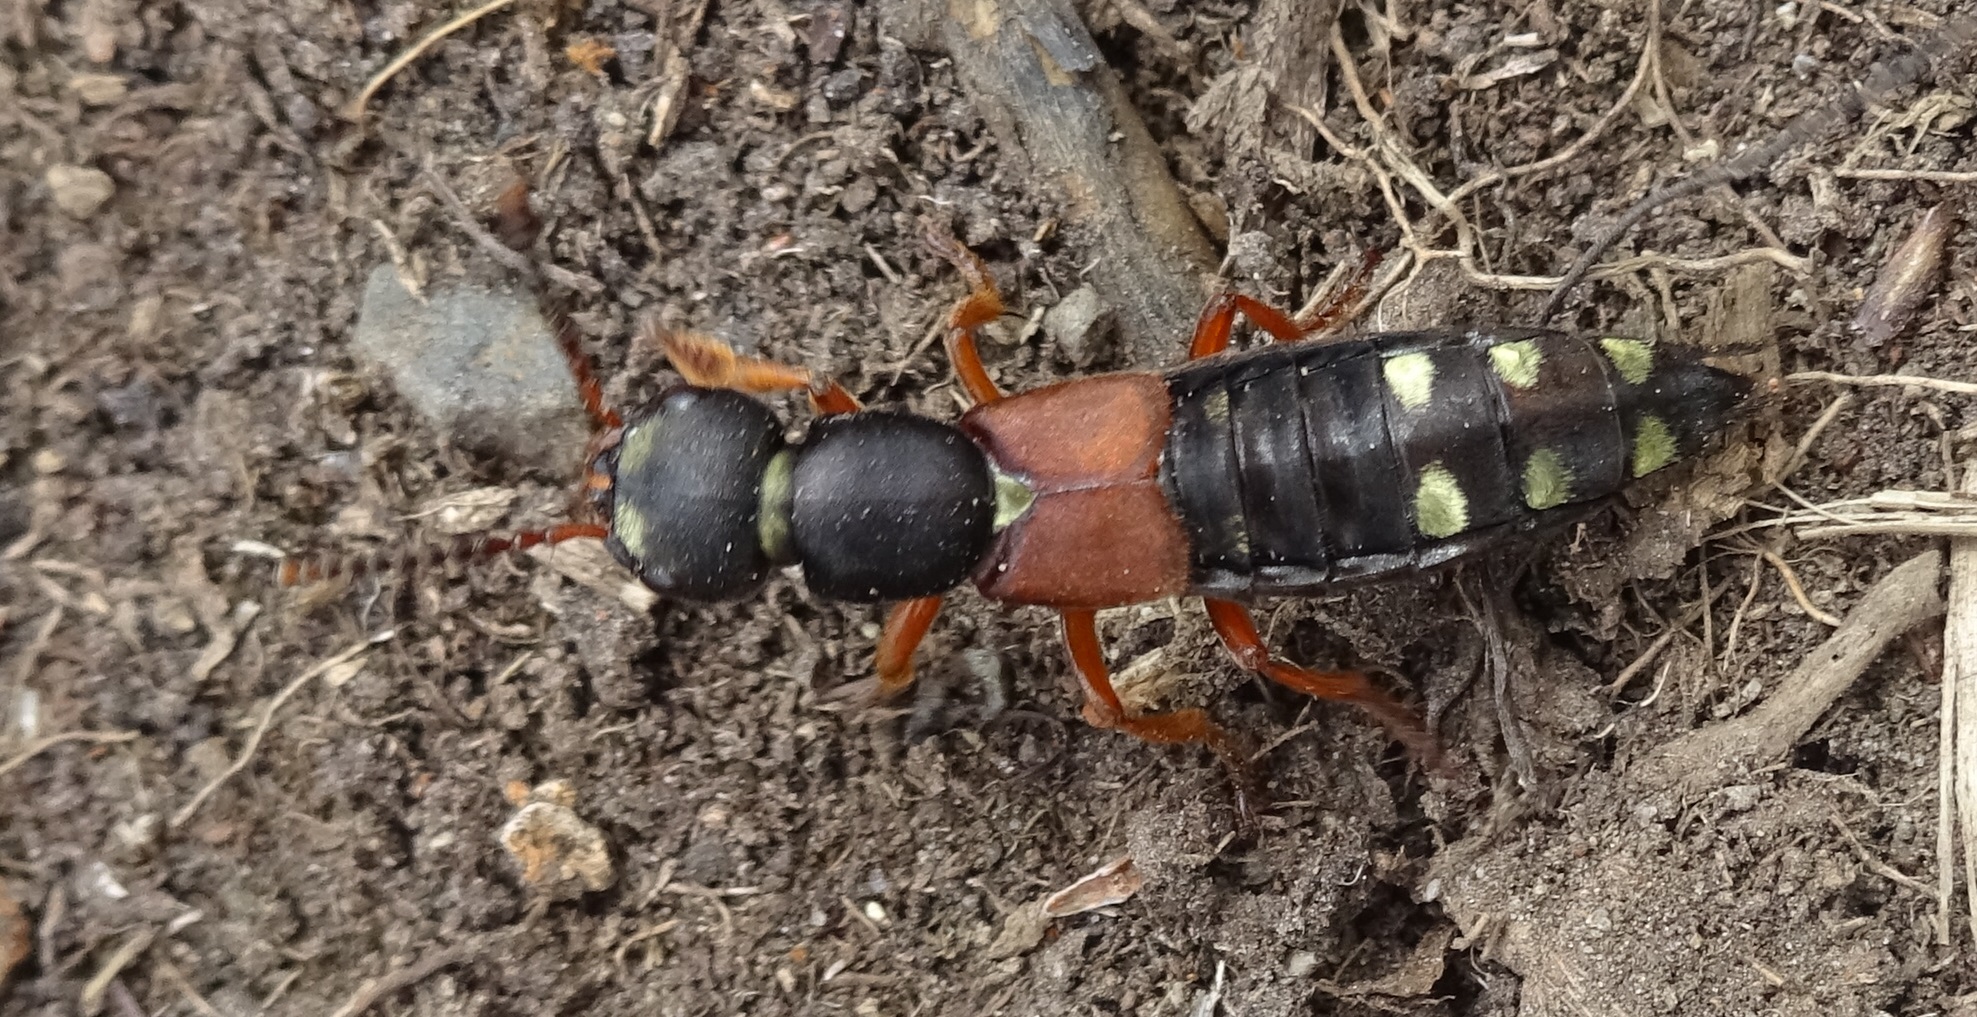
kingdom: Animalia
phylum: Arthropoda
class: Insecta
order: Coleoptera
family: Staphylinidae
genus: Staphylinus
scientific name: Staphylinus erythropterus
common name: Staph beetle
